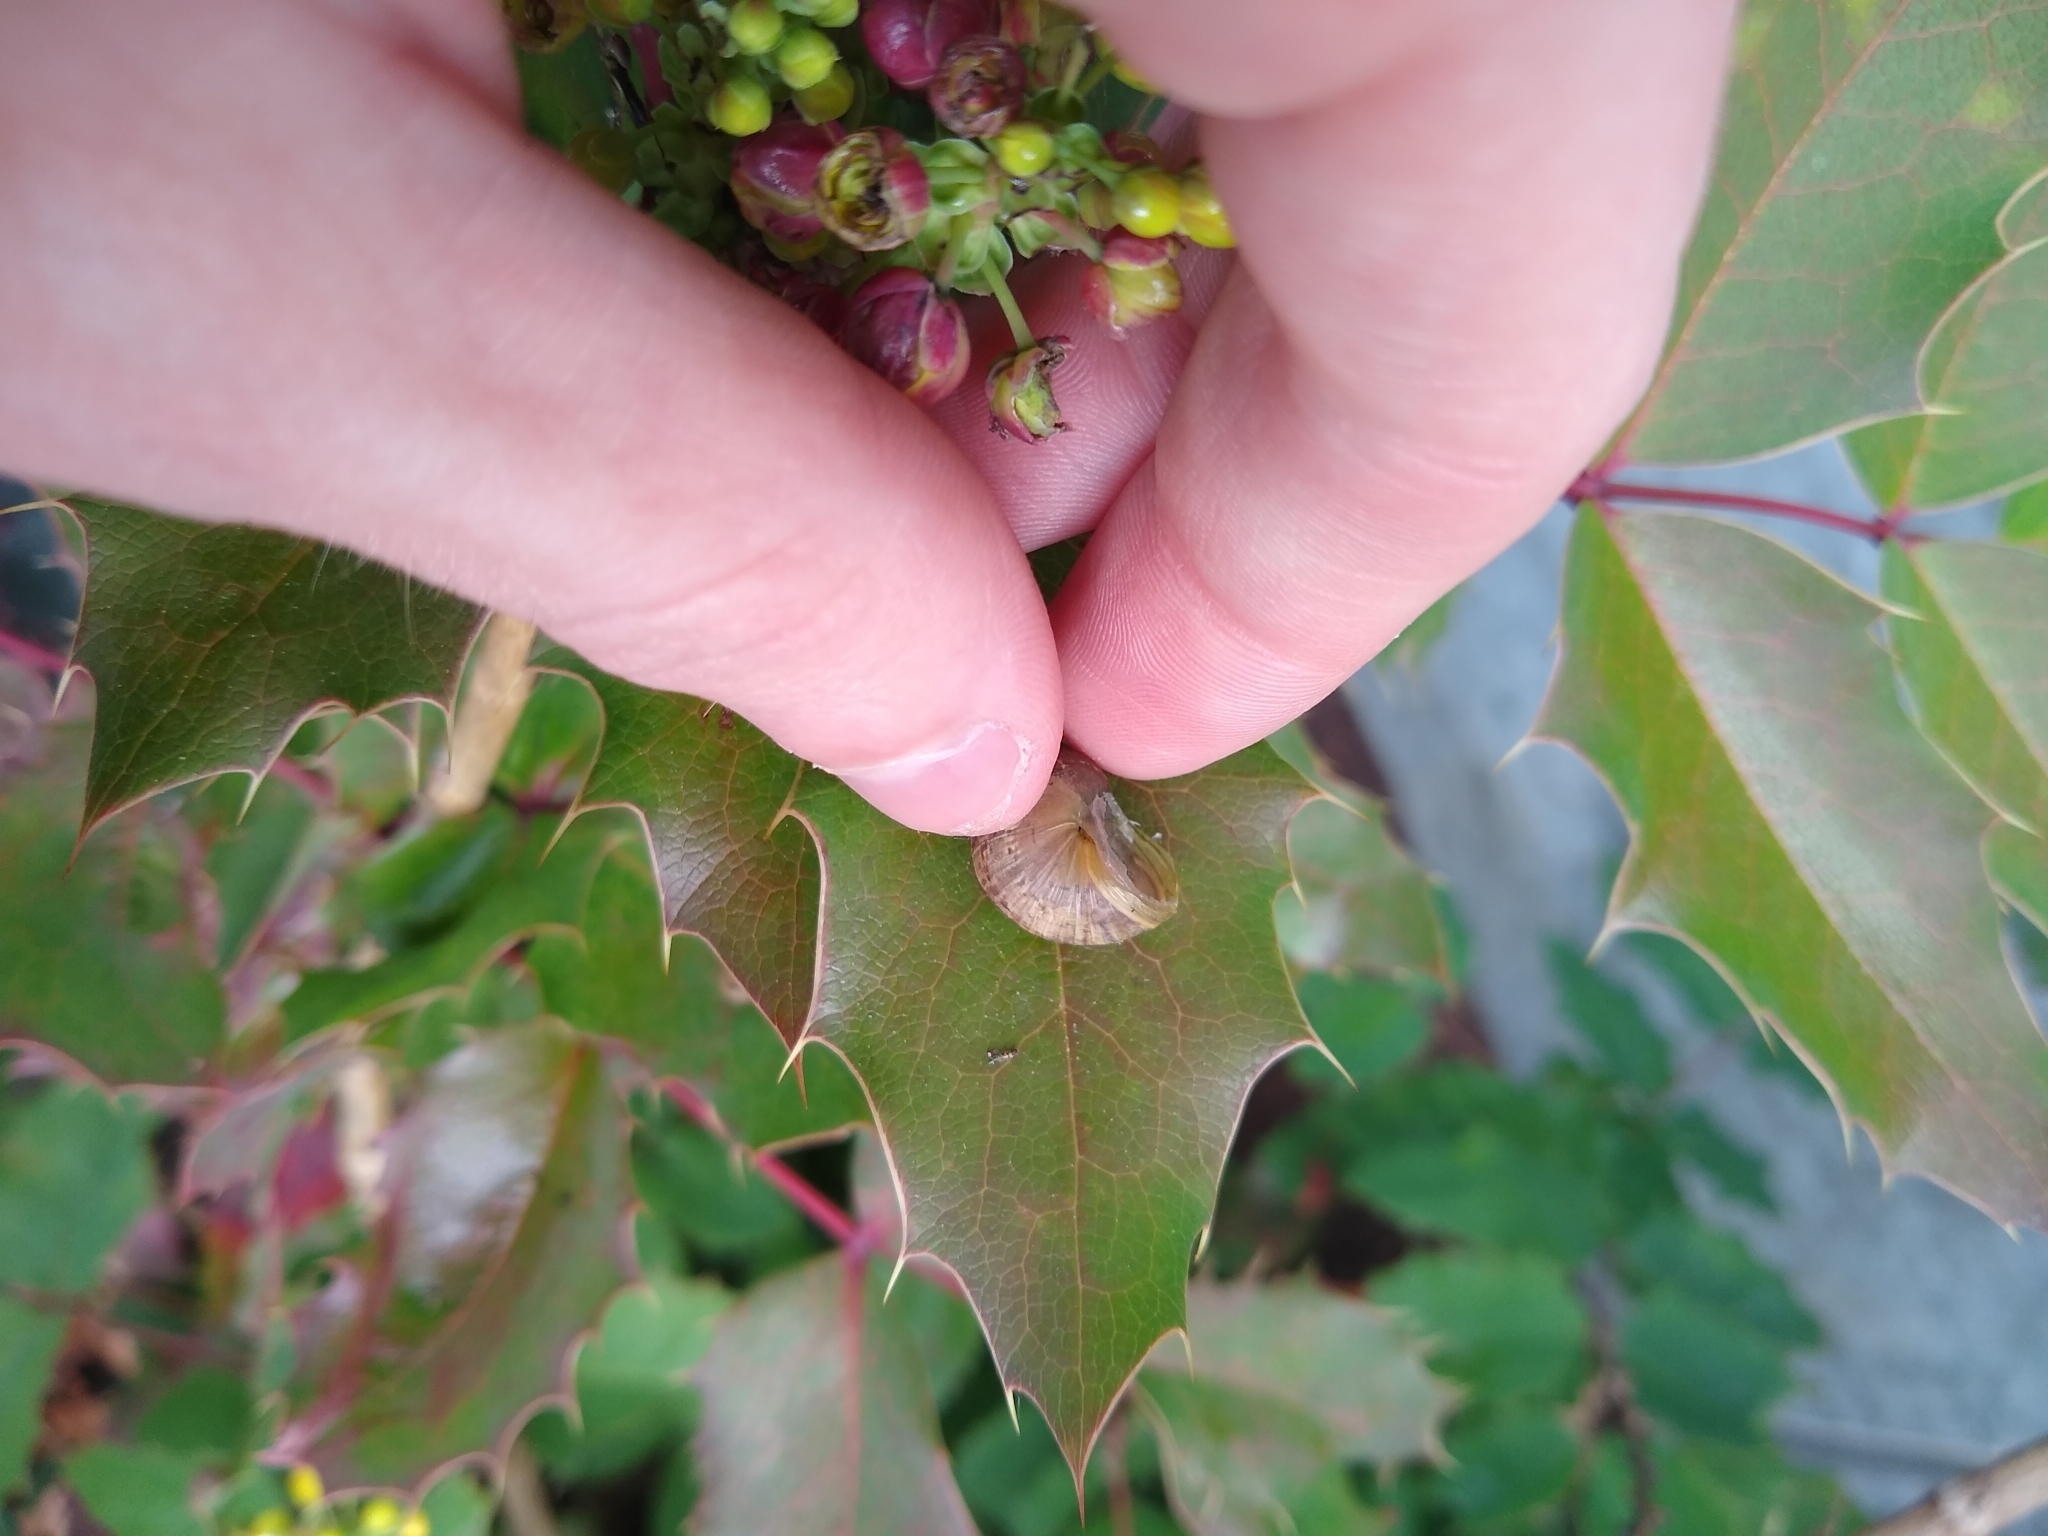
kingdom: Animalia
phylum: Mollusca
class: Gastropoda
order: Stylommatophora
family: Helicidae
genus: Cornu
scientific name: Cornu aspersum
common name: Brown garden snail
